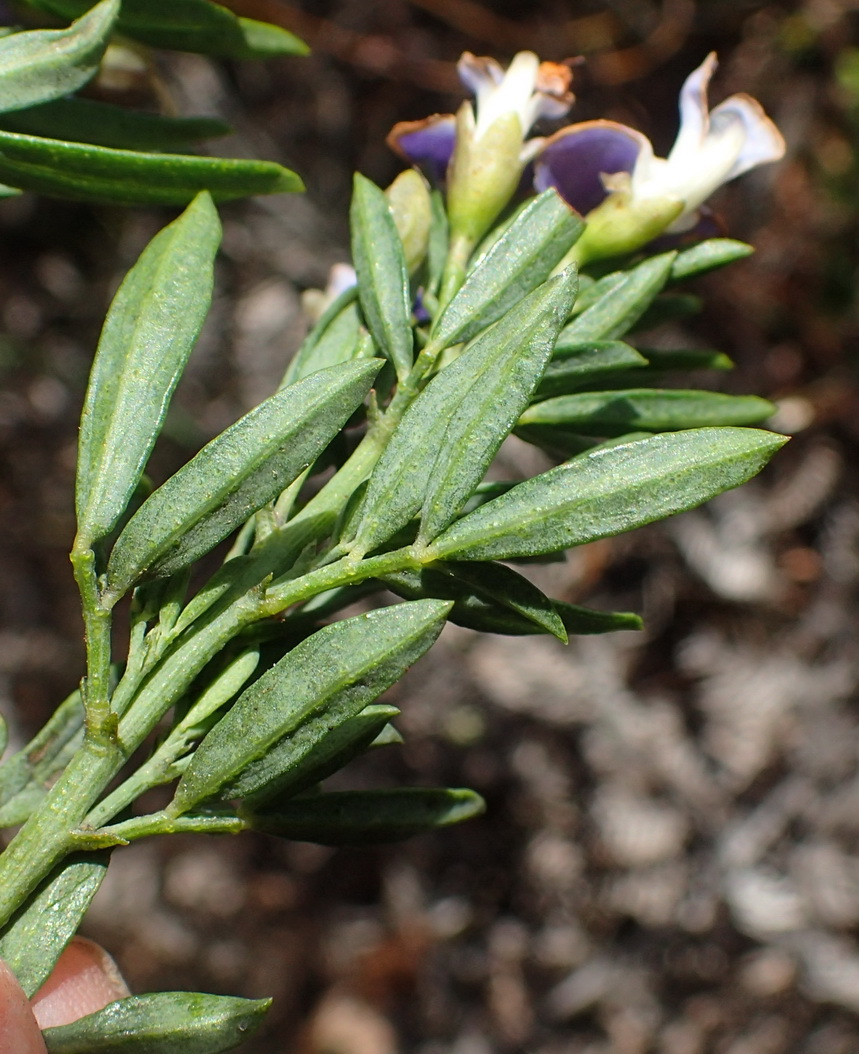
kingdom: Plantae
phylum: Tracheophyta
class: Magnoliopsida
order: Fabales
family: Fabaceae
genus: Psoralea
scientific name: Psoralea axillaris
